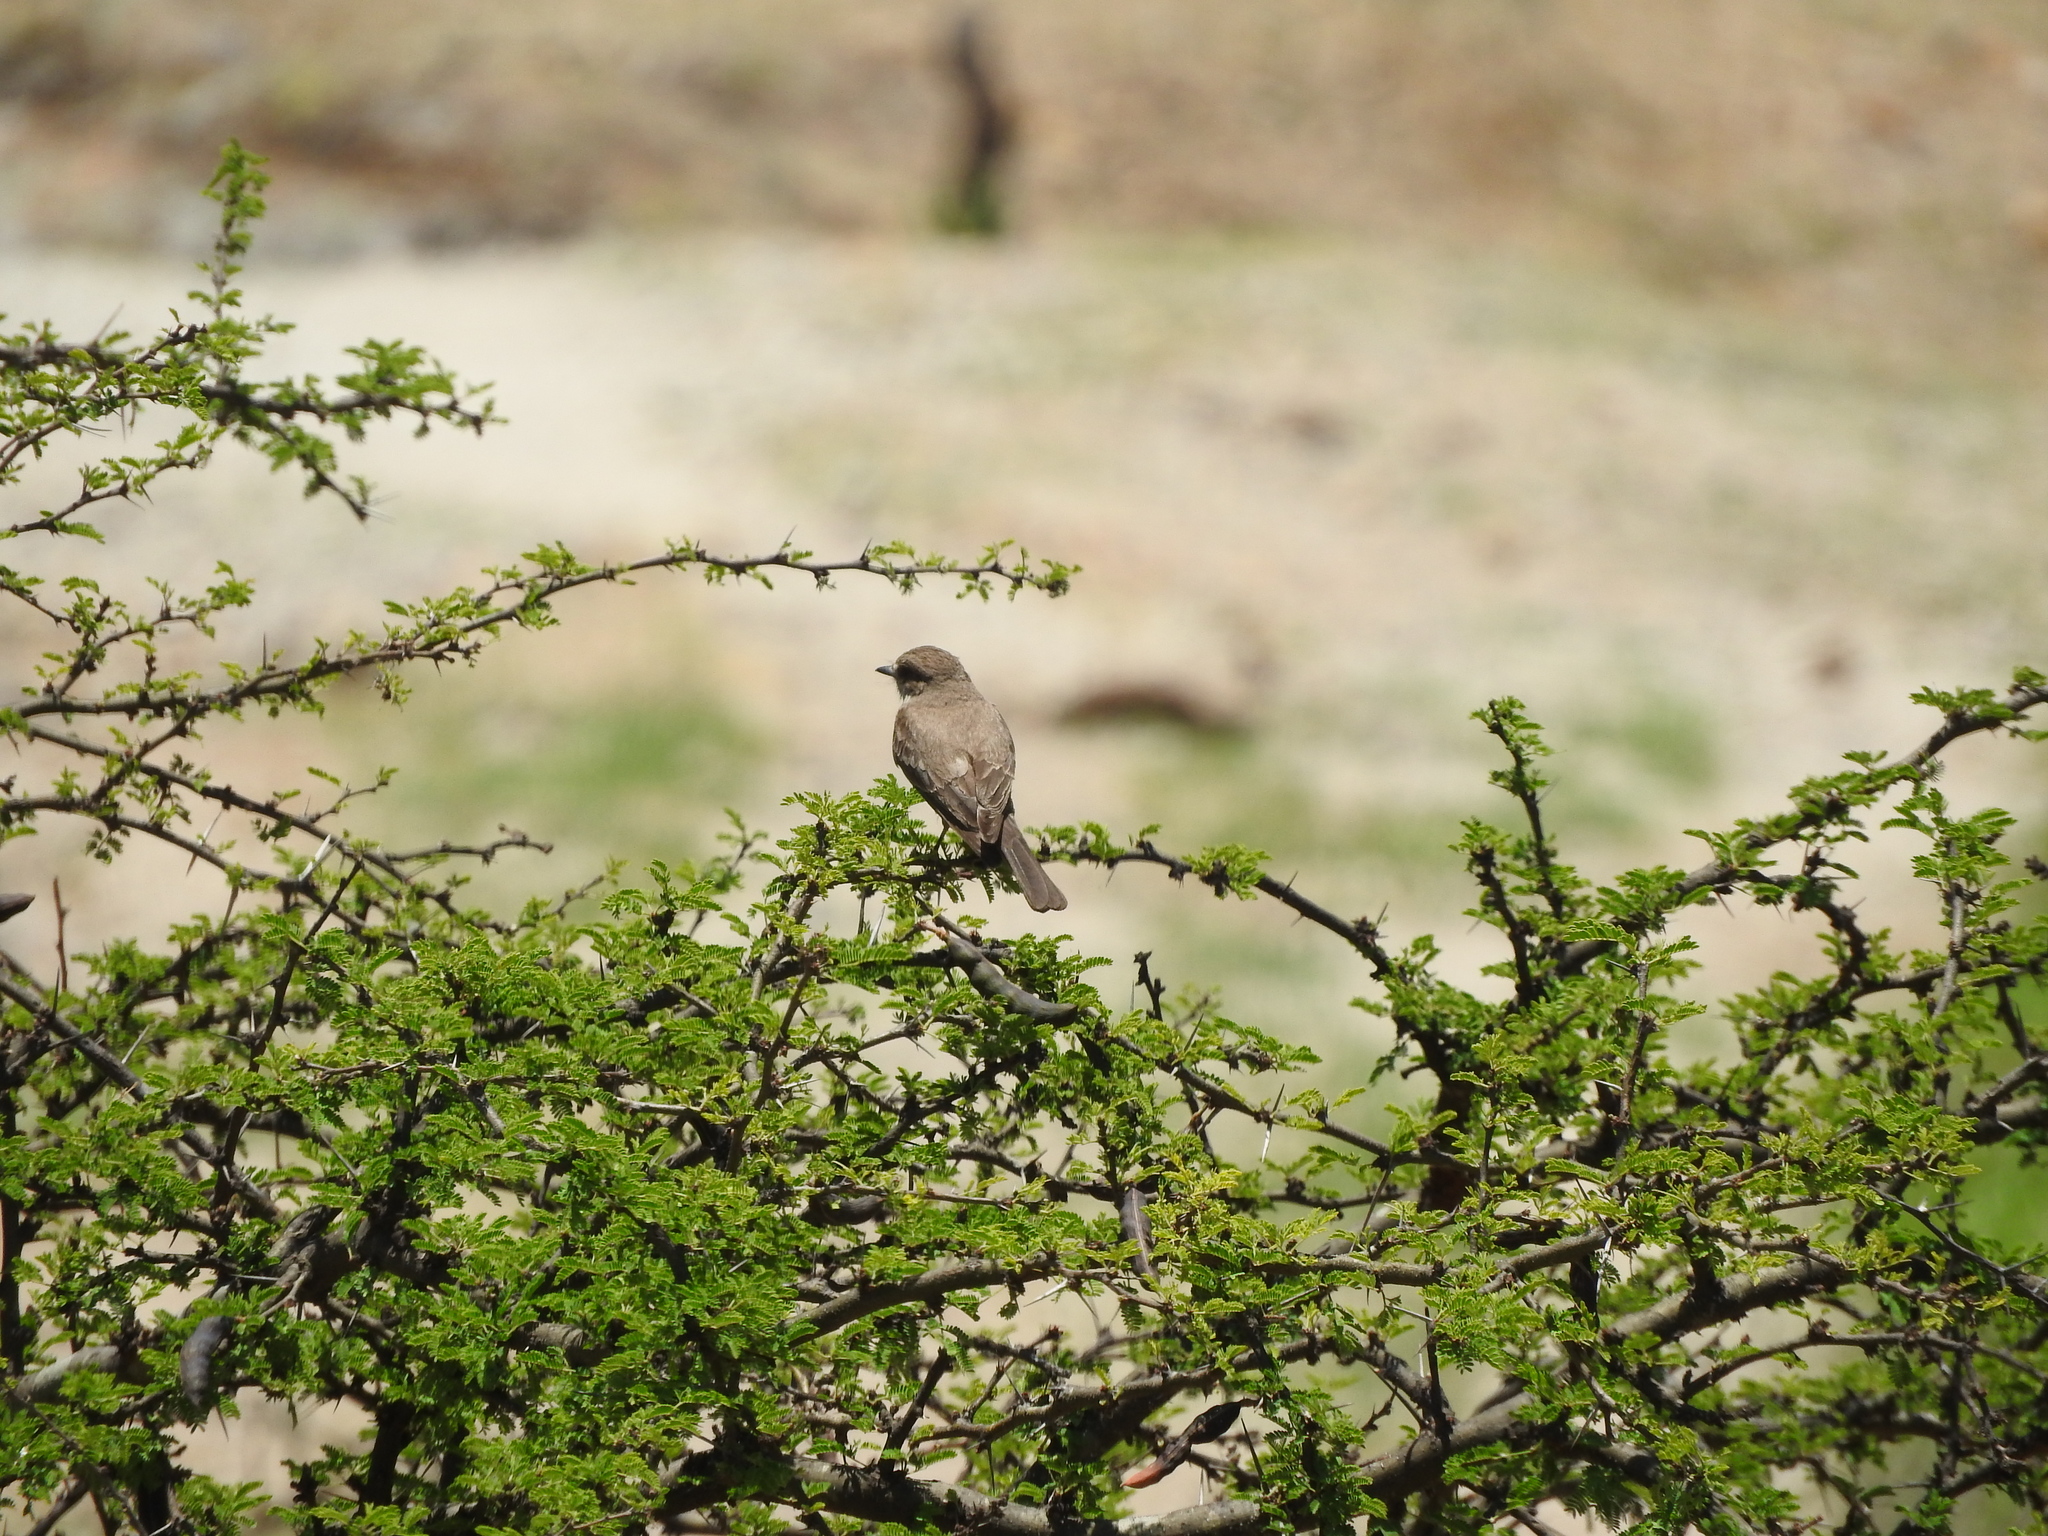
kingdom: Animalia
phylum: Chordata
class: Aves
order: Passeriformes
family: Tyrannidae
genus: Pyrocephalus
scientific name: Pyrocephalus rubinus
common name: Vermilion flycatcher
